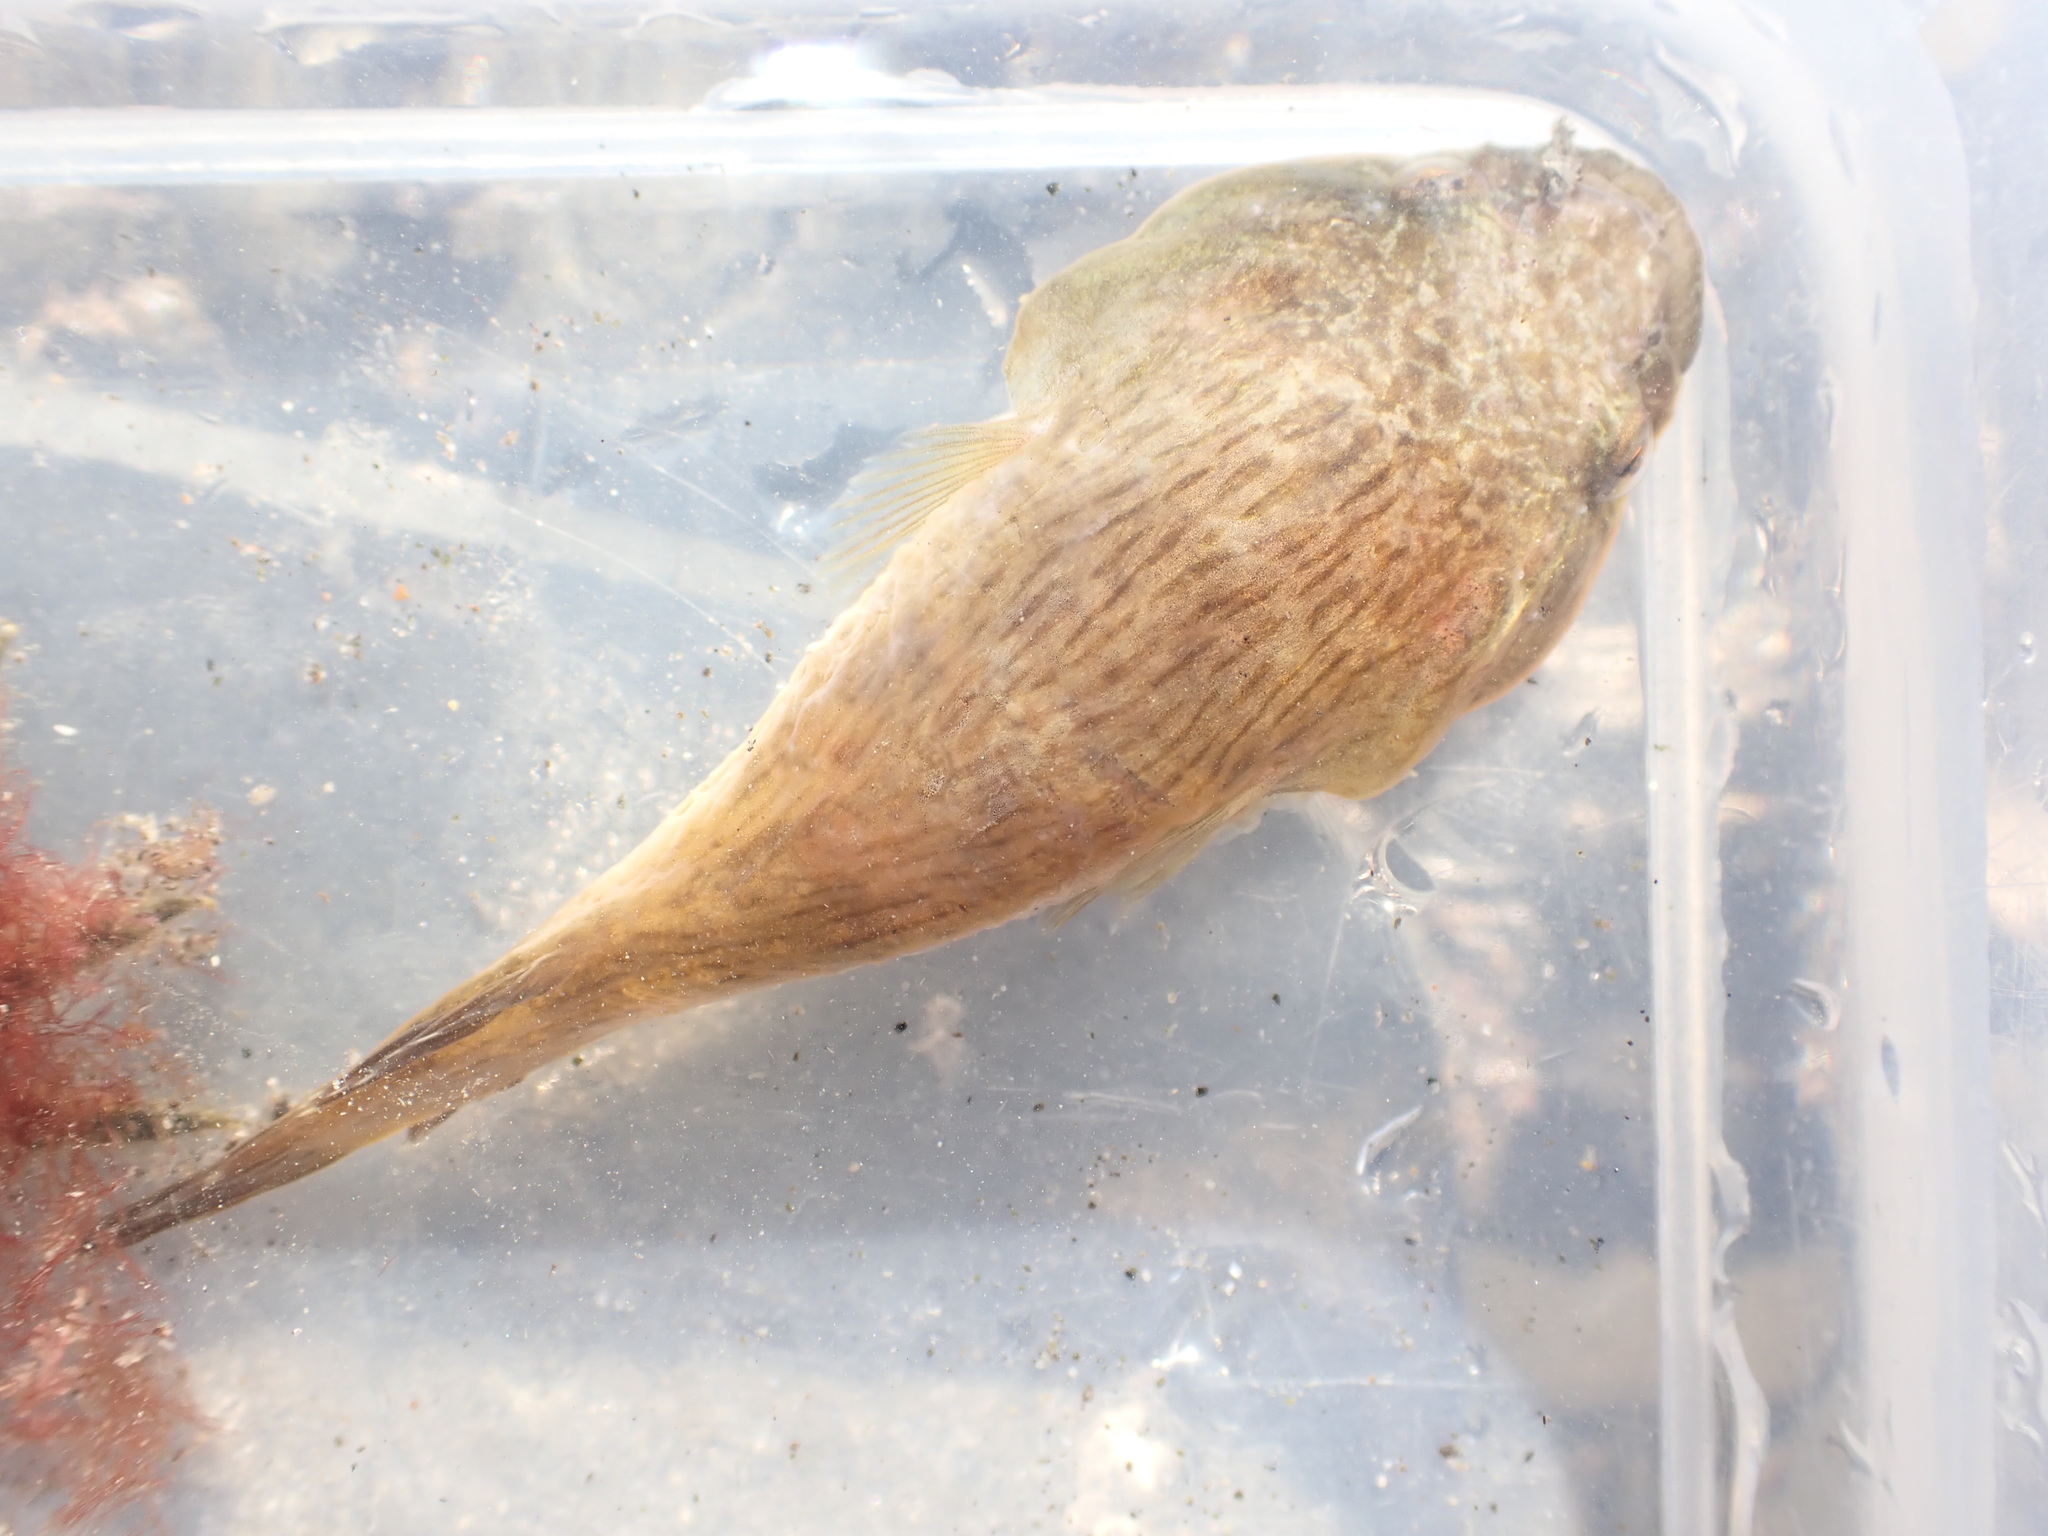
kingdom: Animalia
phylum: Chordata
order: Gobiesociformes
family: Gobiesocidae
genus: Trachelochismus
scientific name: Trachelochismus pinnulatus
